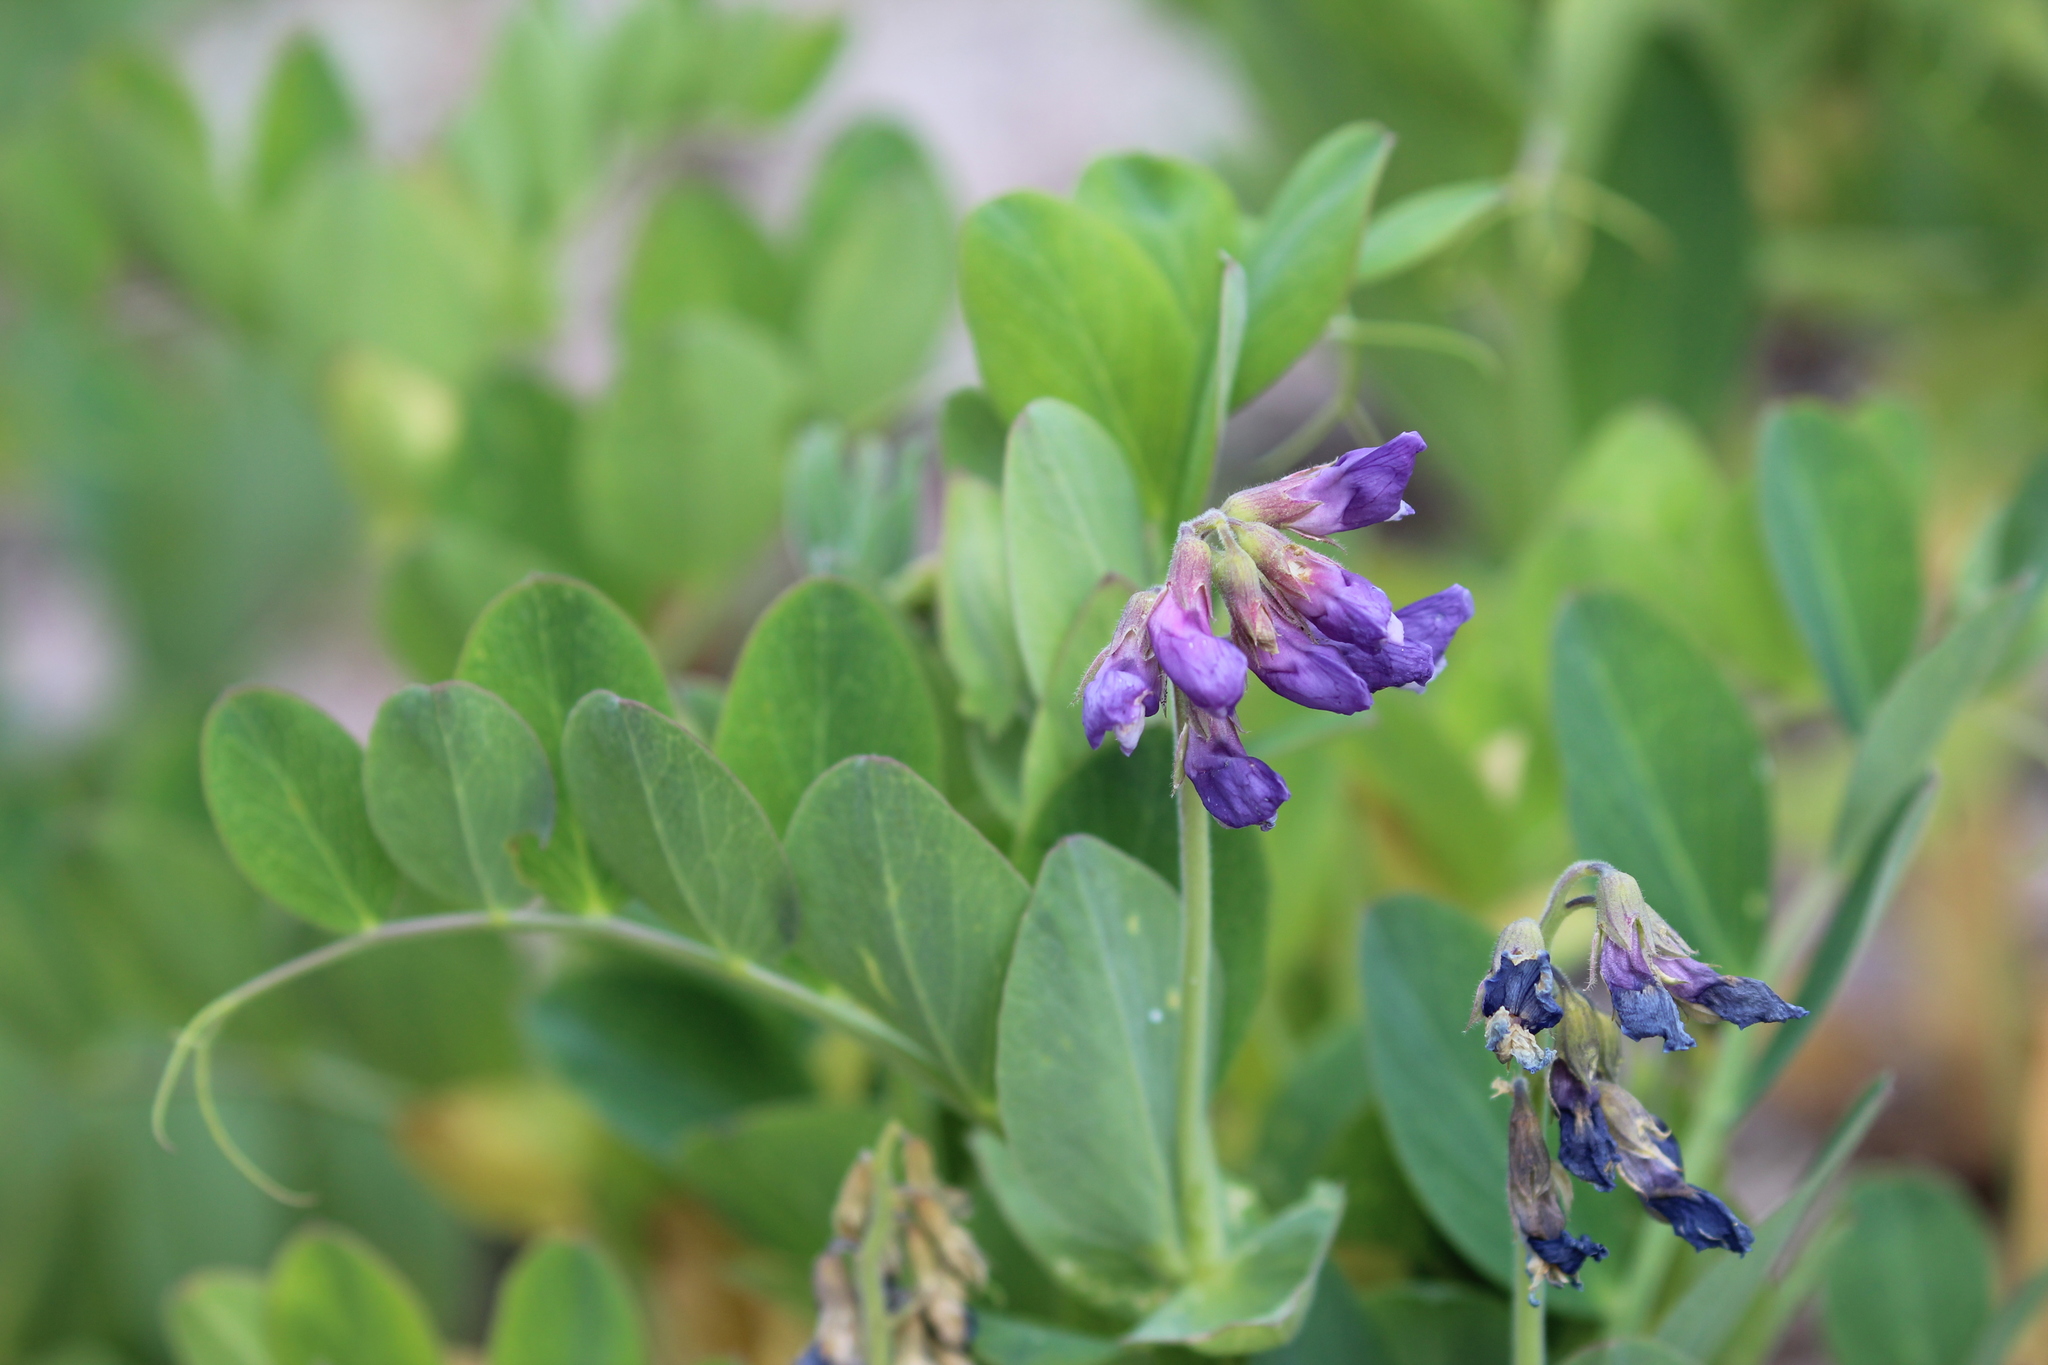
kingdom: Plantae
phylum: Tracheophyta
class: Magnoliopsida
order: Fabales
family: Fabaceae
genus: Lathyrus
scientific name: Lathyrus japonicus
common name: Sea pea
